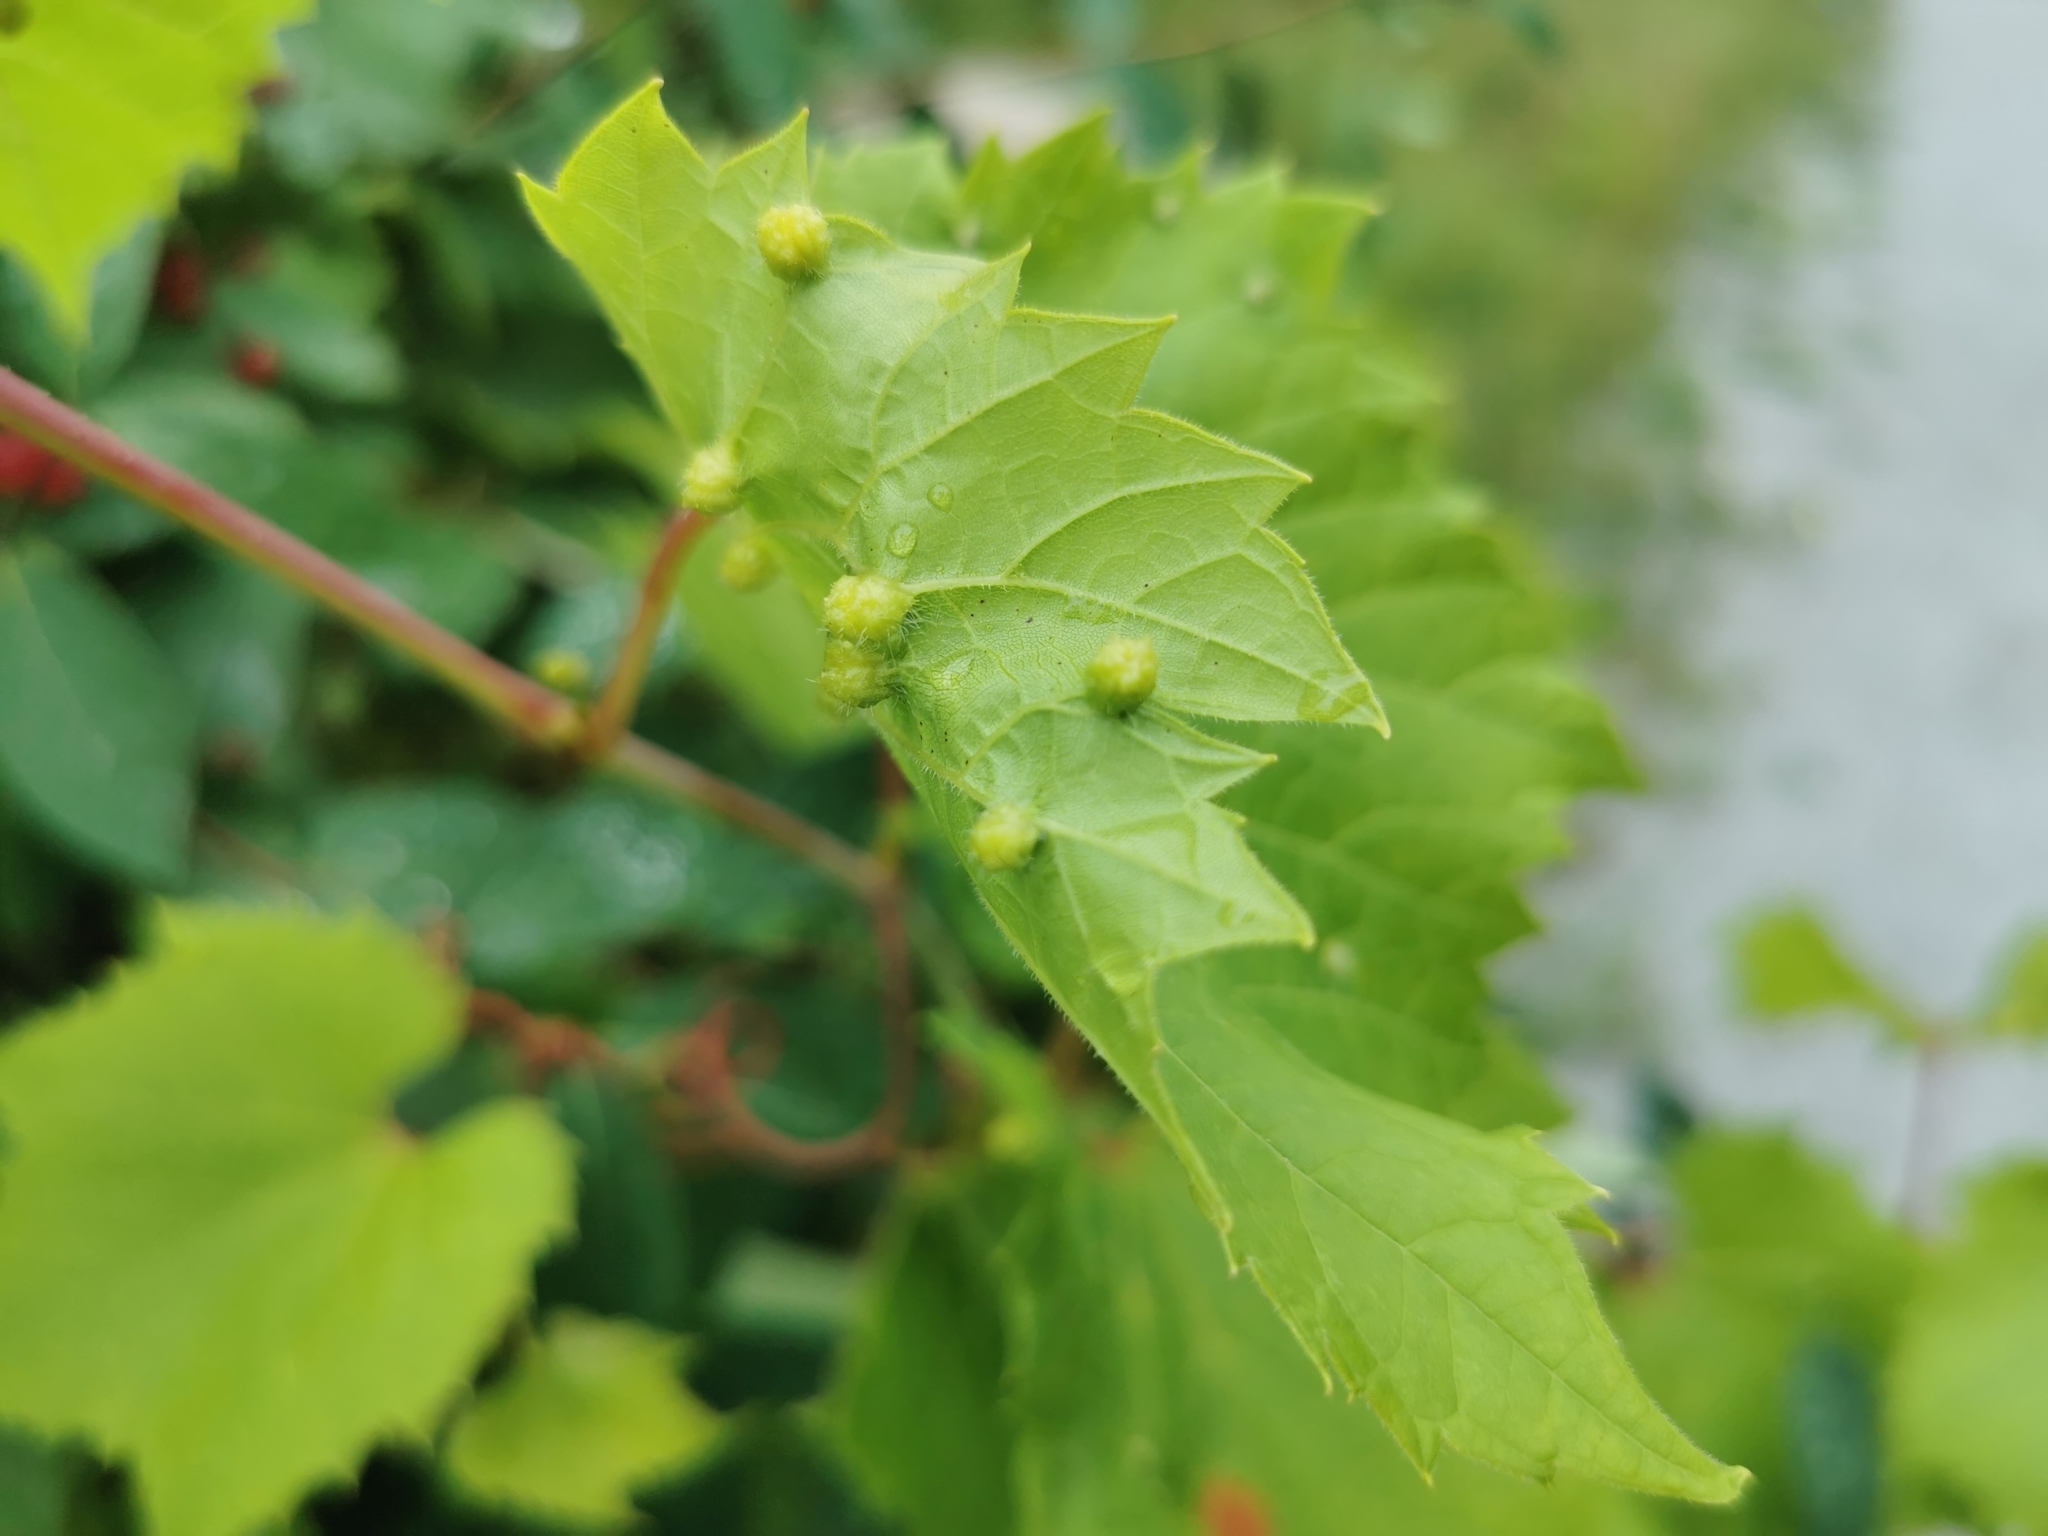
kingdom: Animalia
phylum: Arthropoda
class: Insecta
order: Hemiptera
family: Phylloxeridae
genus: Daktulosphaira
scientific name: Daktulosphaira vitifoliae
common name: Grape phylloxera
